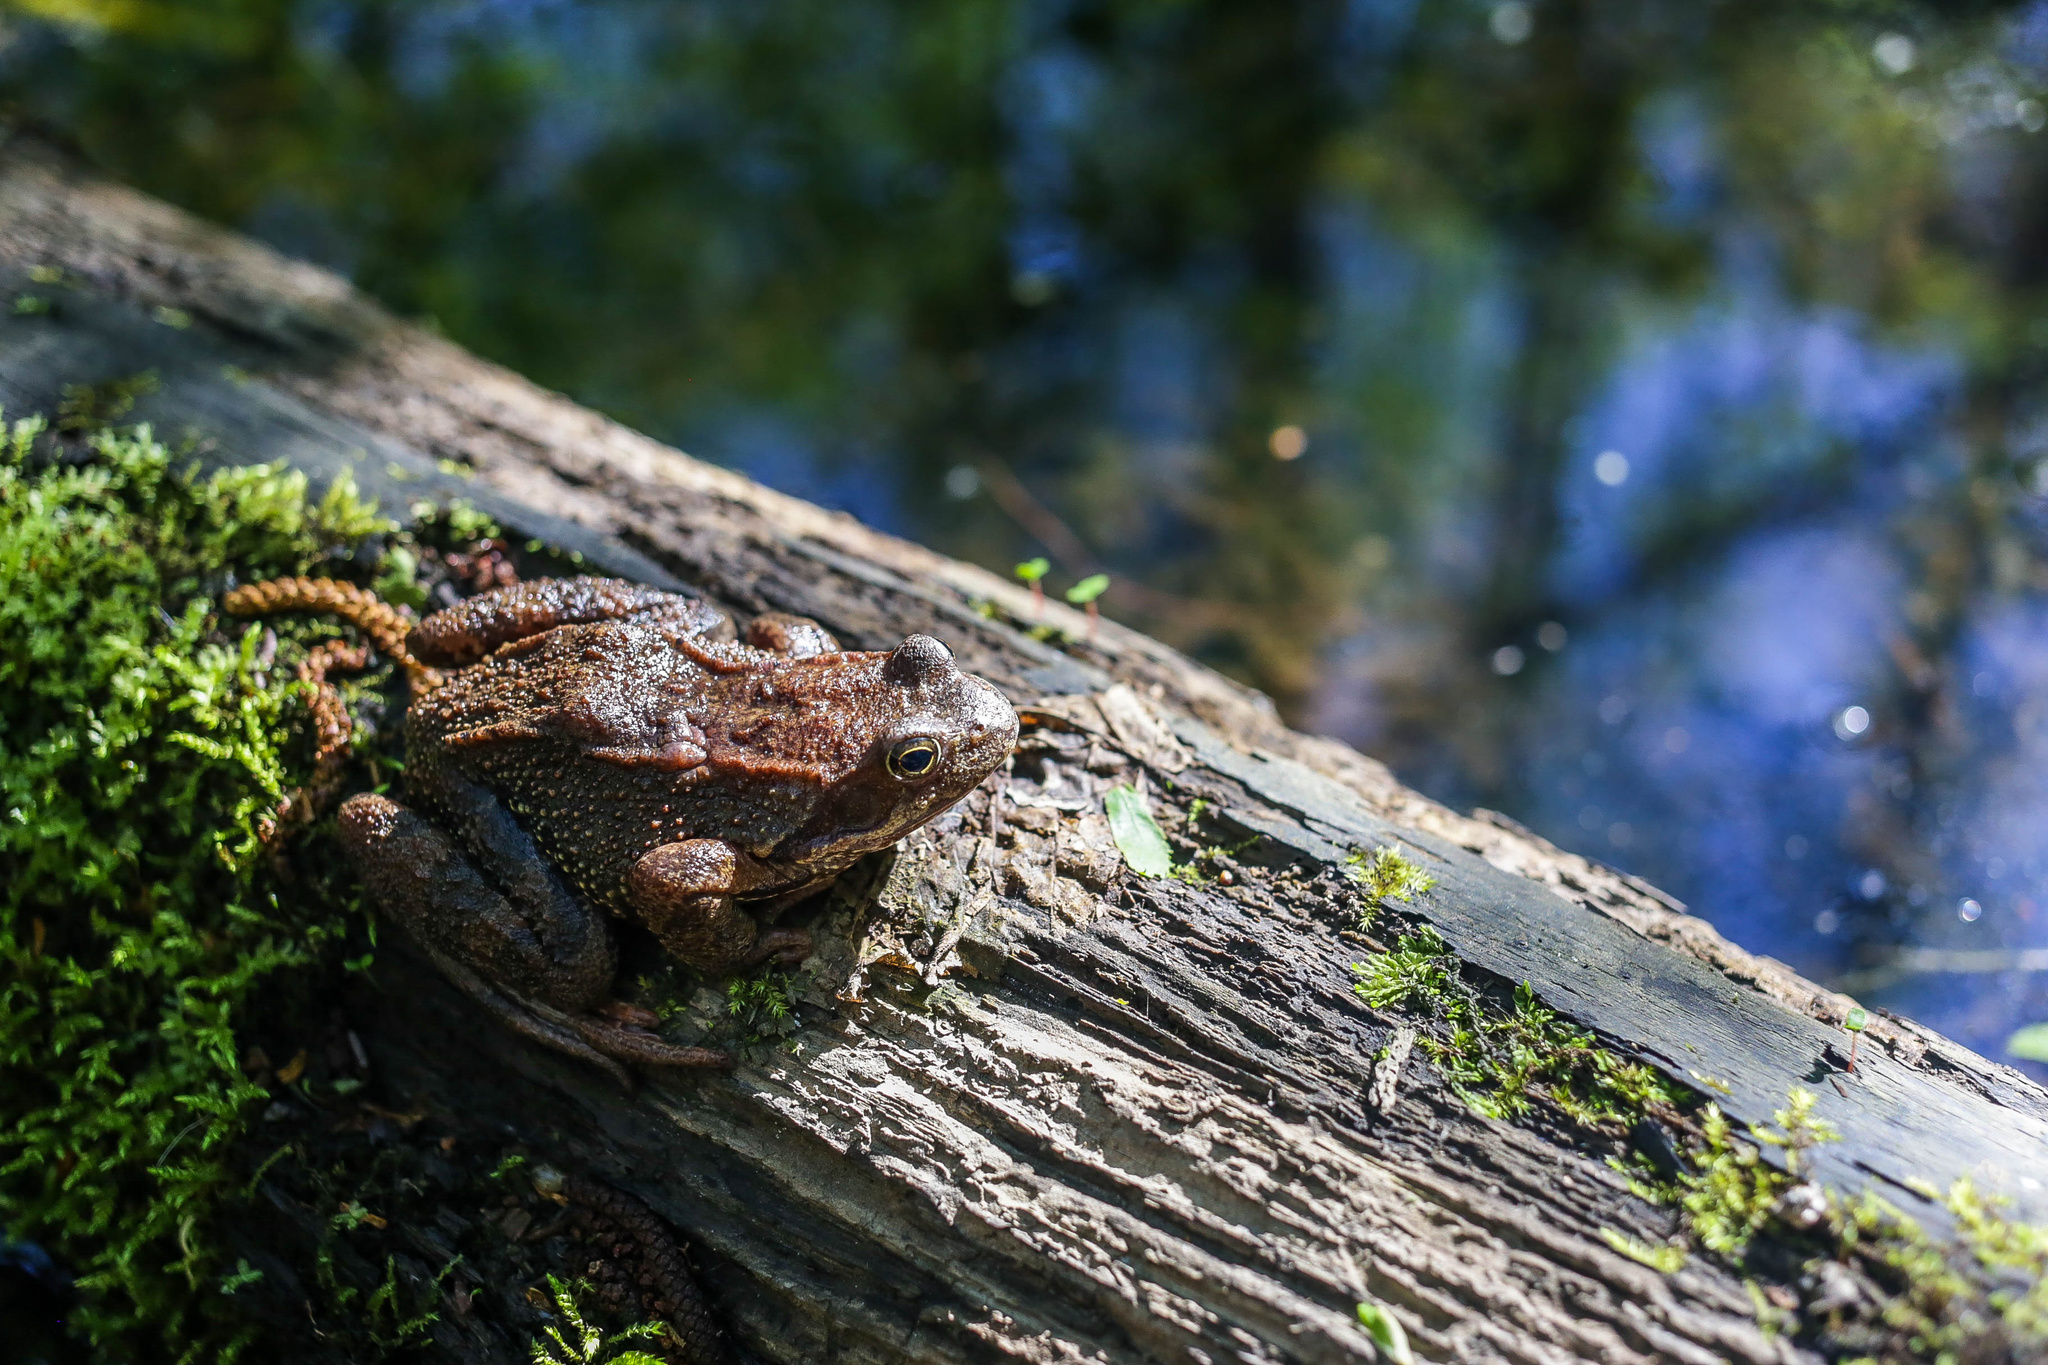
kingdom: Animalia
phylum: Chordata
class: Amphibia
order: Anura
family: Ranidae
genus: Rana
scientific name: Rana temporaria
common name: Common frog
